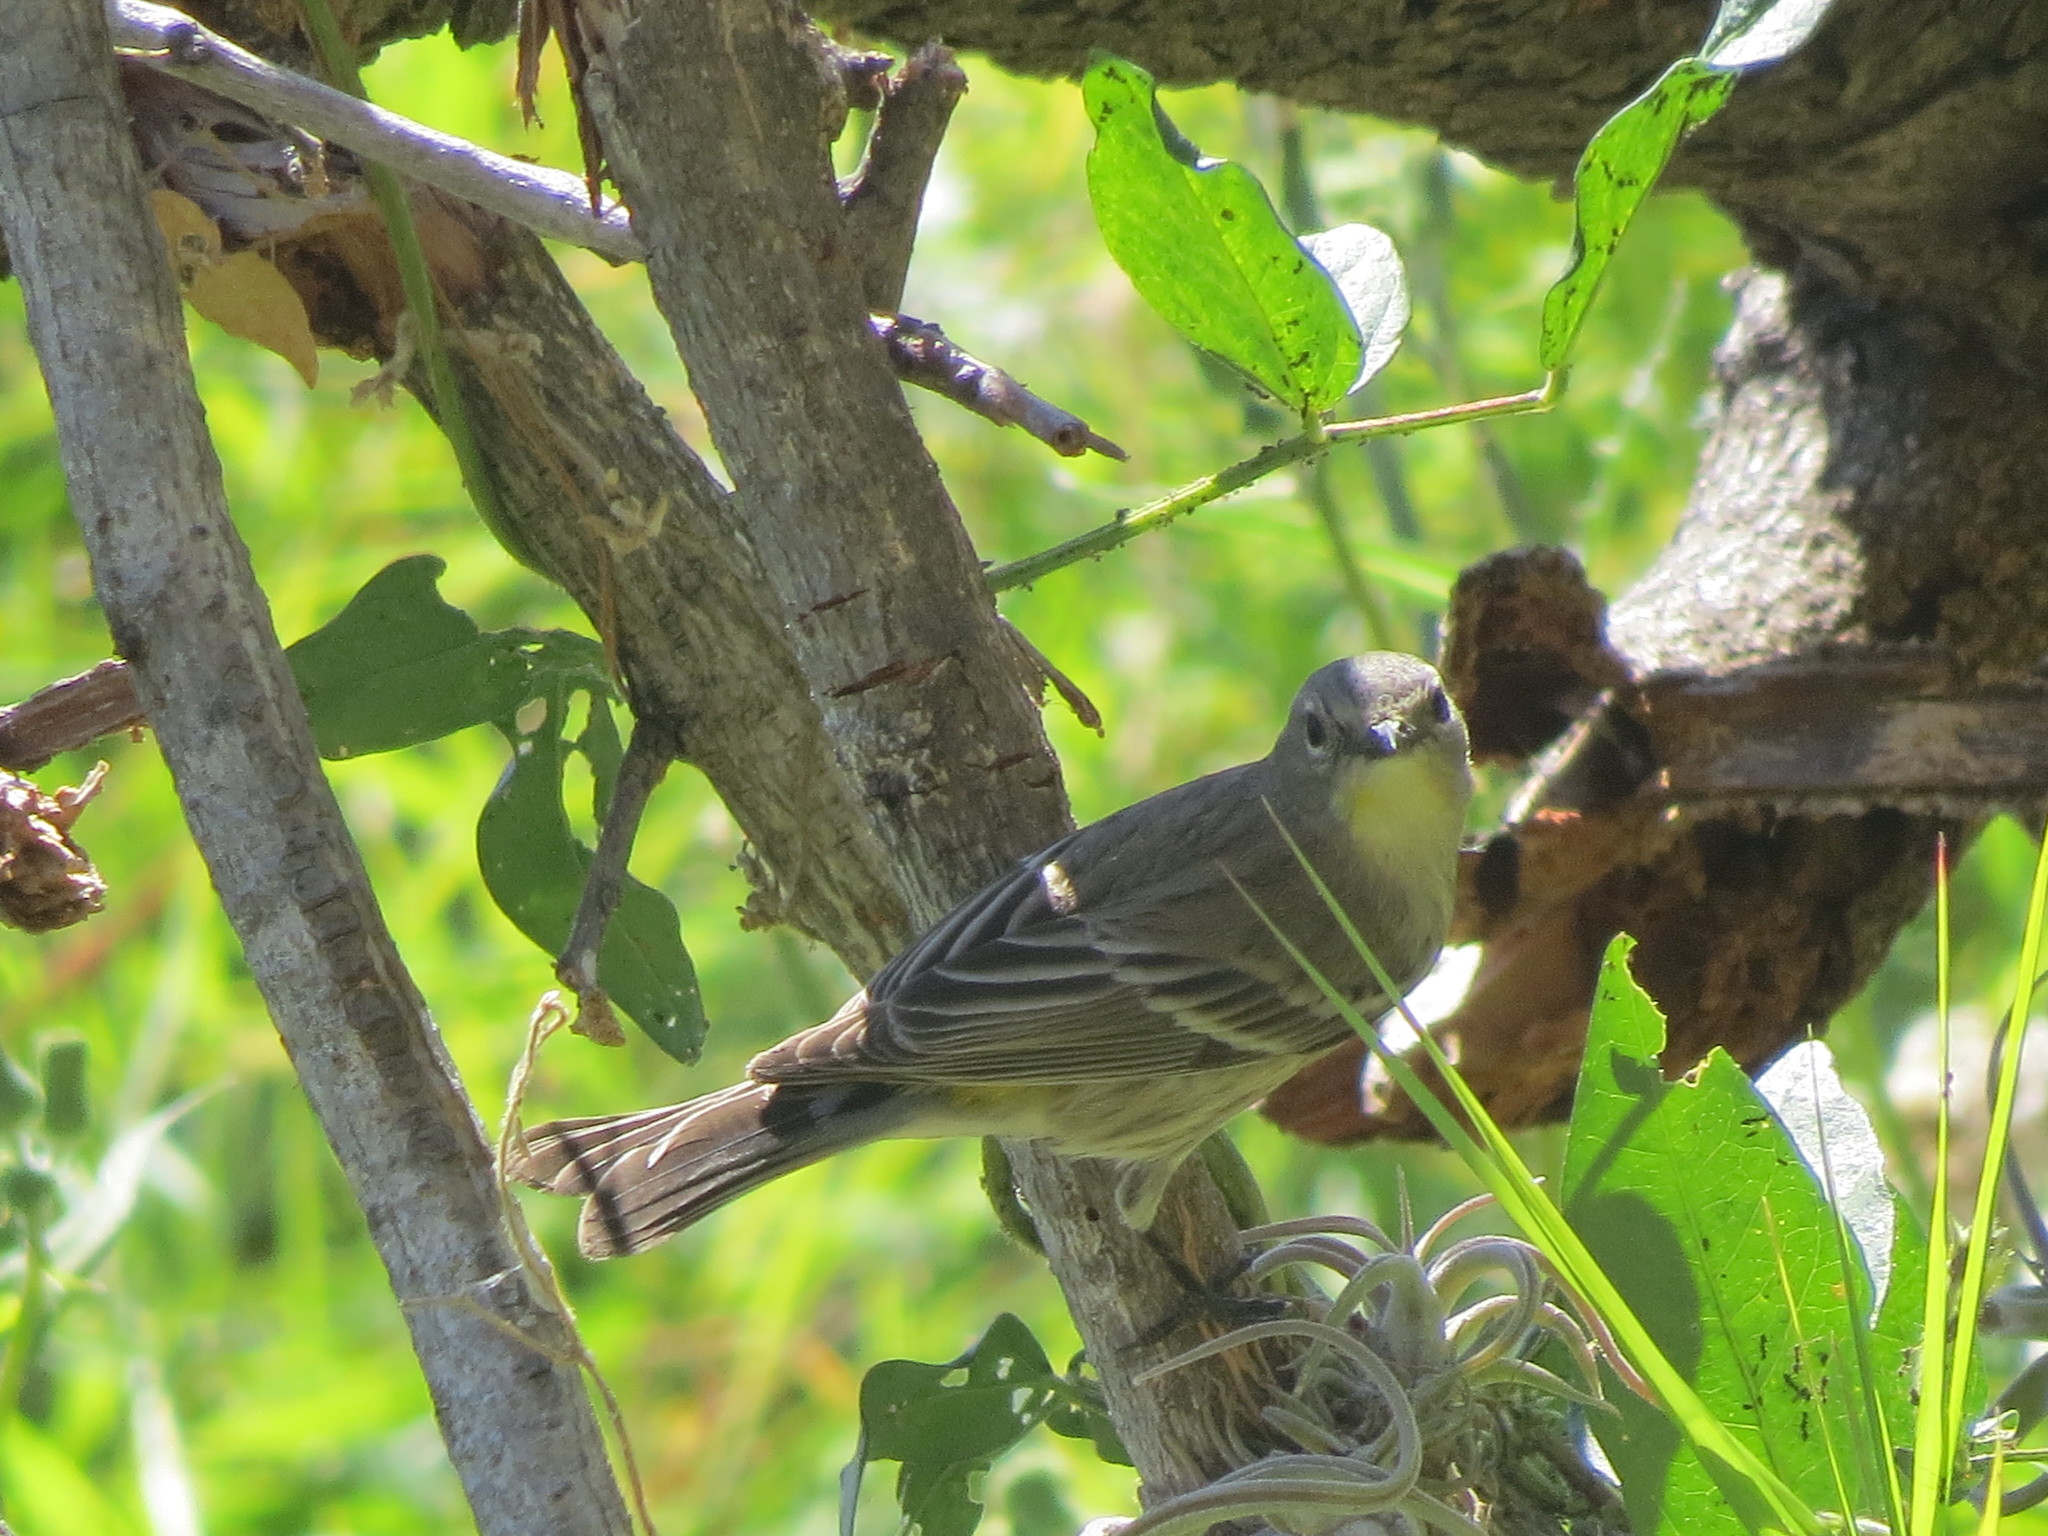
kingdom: Animalia
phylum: Chordata
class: Aves
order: Passeriformes
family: Parulidae
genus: Setophaga
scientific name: Setophaga coronata
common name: Myrtle warbler
